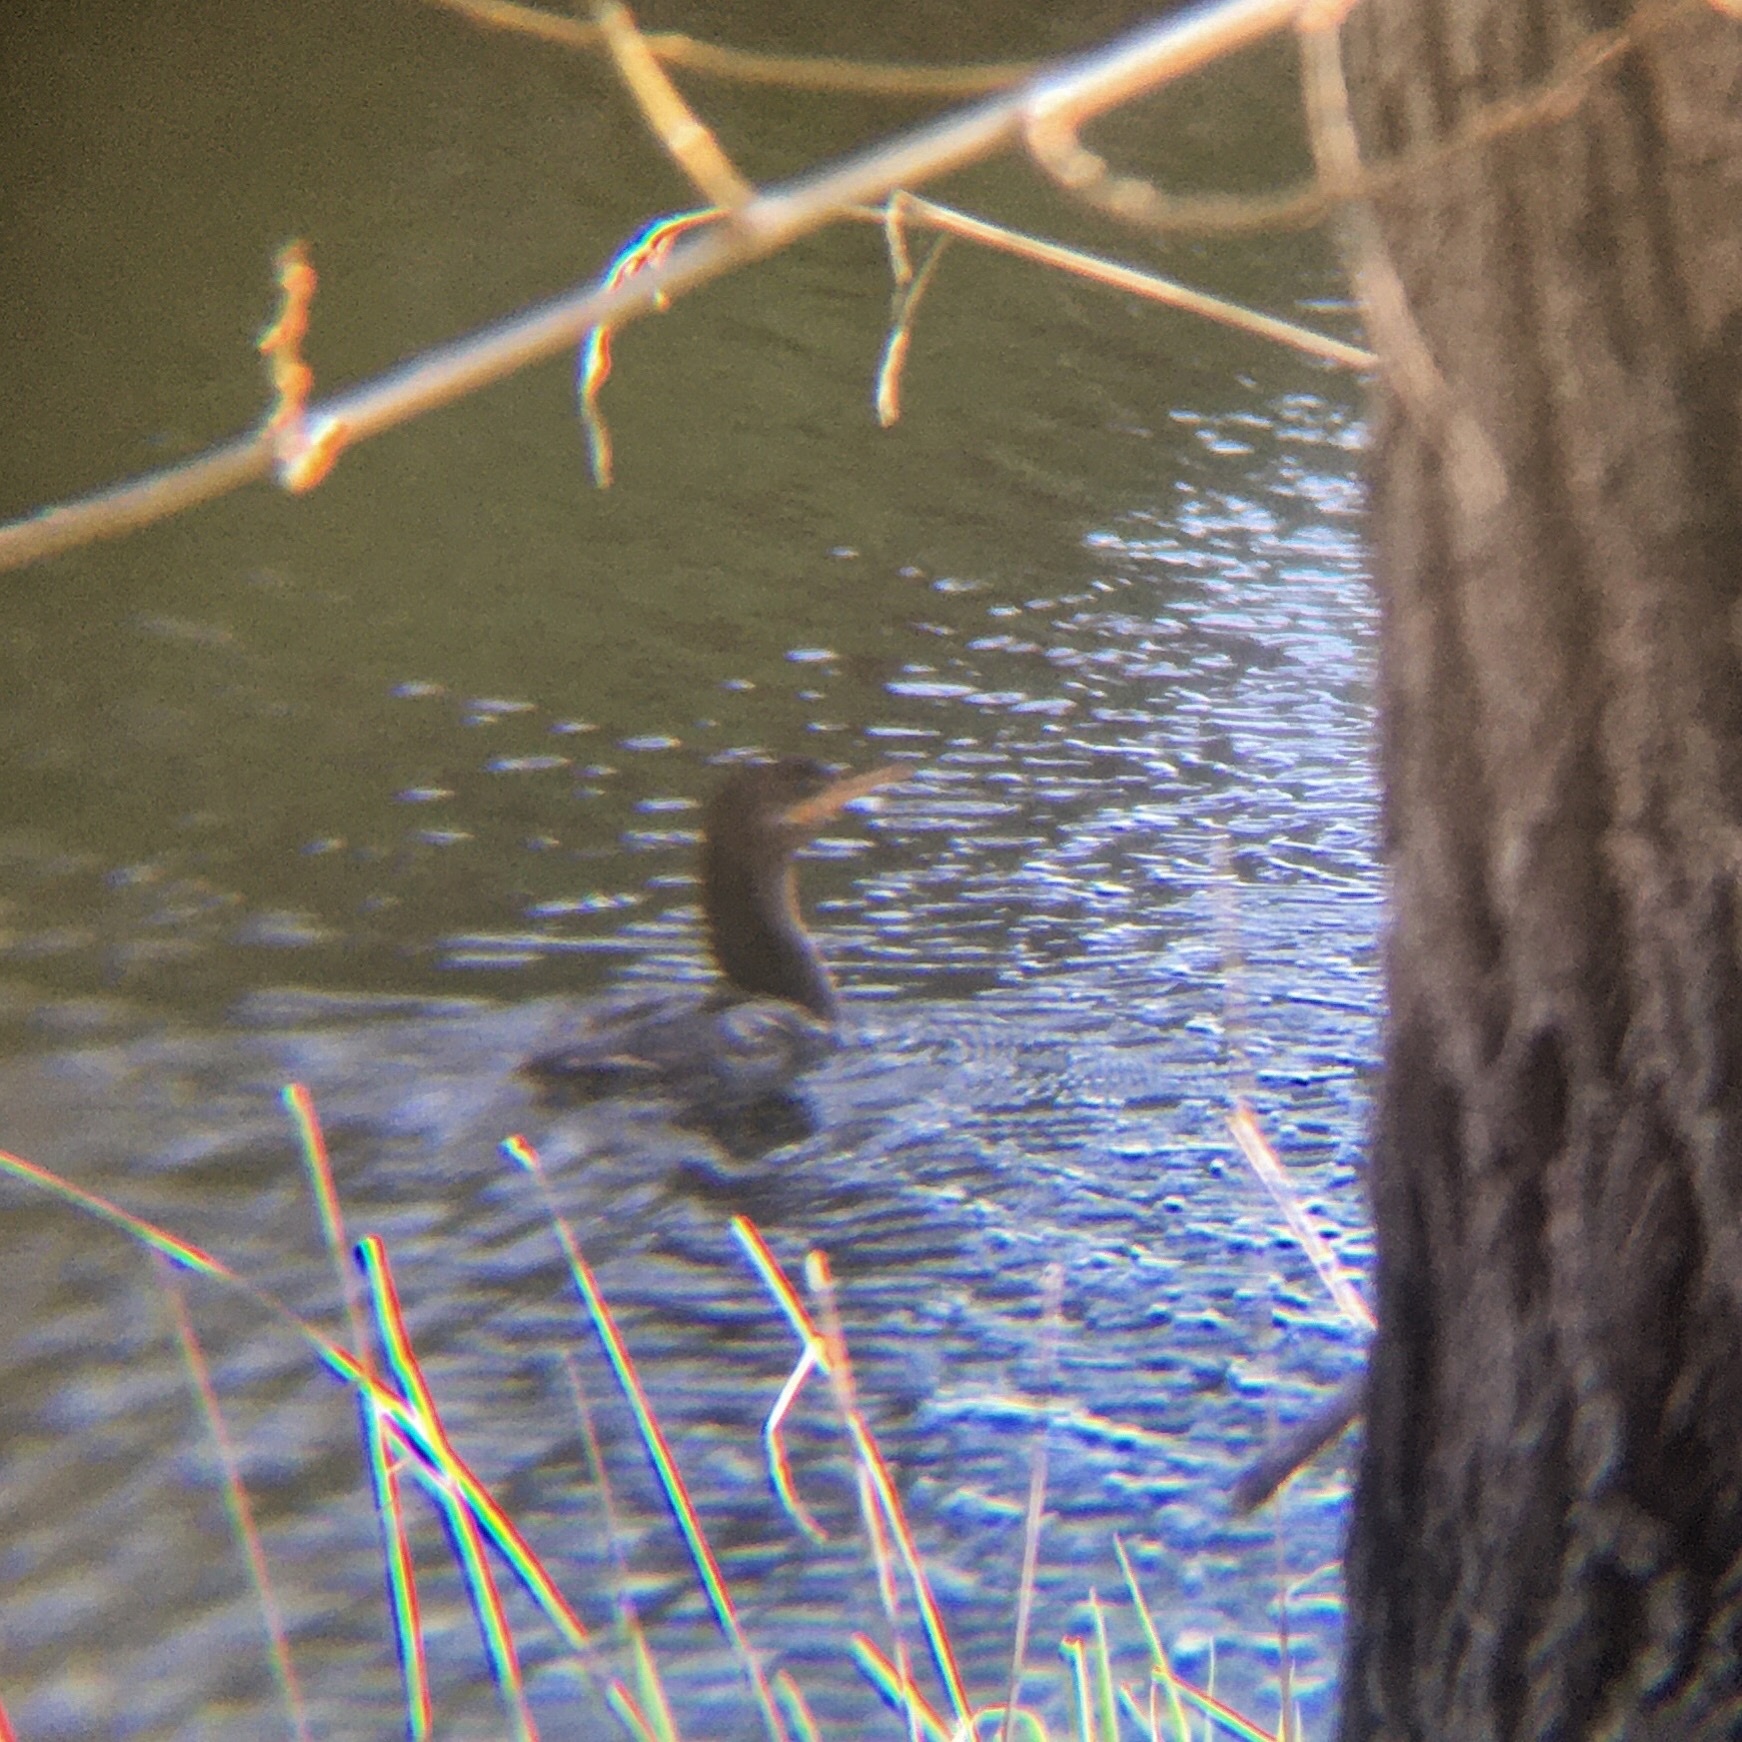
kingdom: Animalia
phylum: Chordata
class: Aves
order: Suliformes
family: Phalacrocoracidae
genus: Phalacrocorax
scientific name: Phalacrocorax brasilianus
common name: Neotropic cormorant
